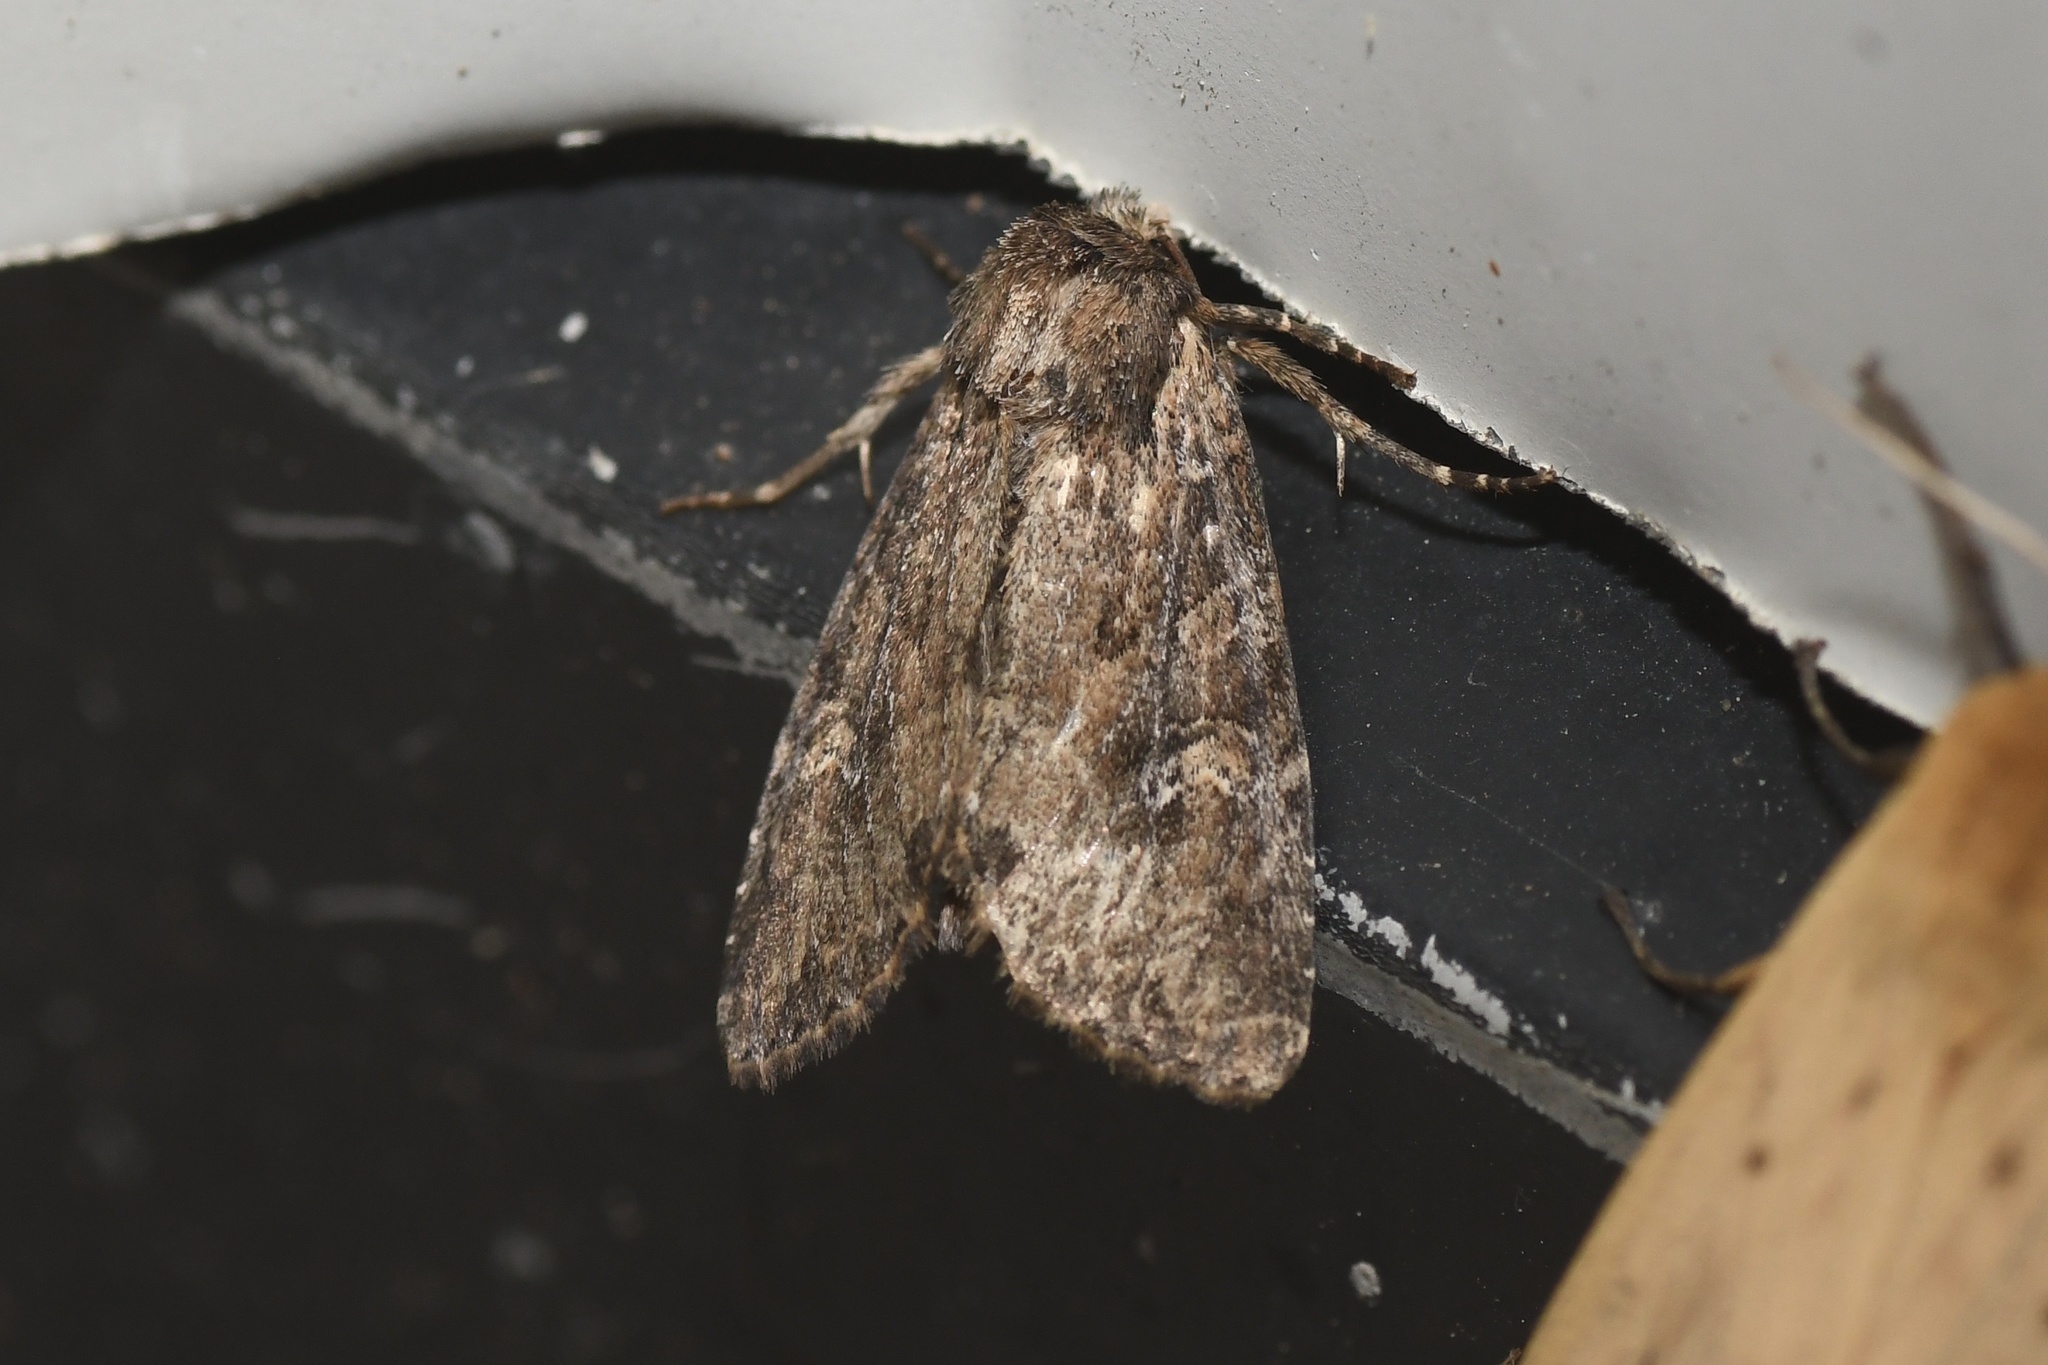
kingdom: Animalia
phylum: Arthropoda
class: Insecta
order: Lepidoptera
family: Noctuidae
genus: Apamea
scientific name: Apamea unanimis
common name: Small clouded brindle
